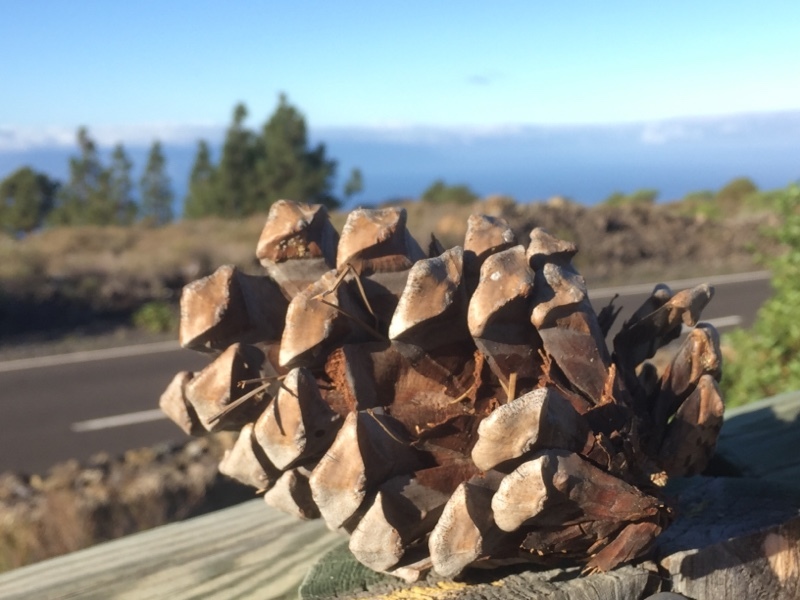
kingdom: Plantae
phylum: Tracheophyta
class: Pinopsida
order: Pinales
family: Pinaceae
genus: Pinus
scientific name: Pinus canariensis
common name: Canary islands pine
